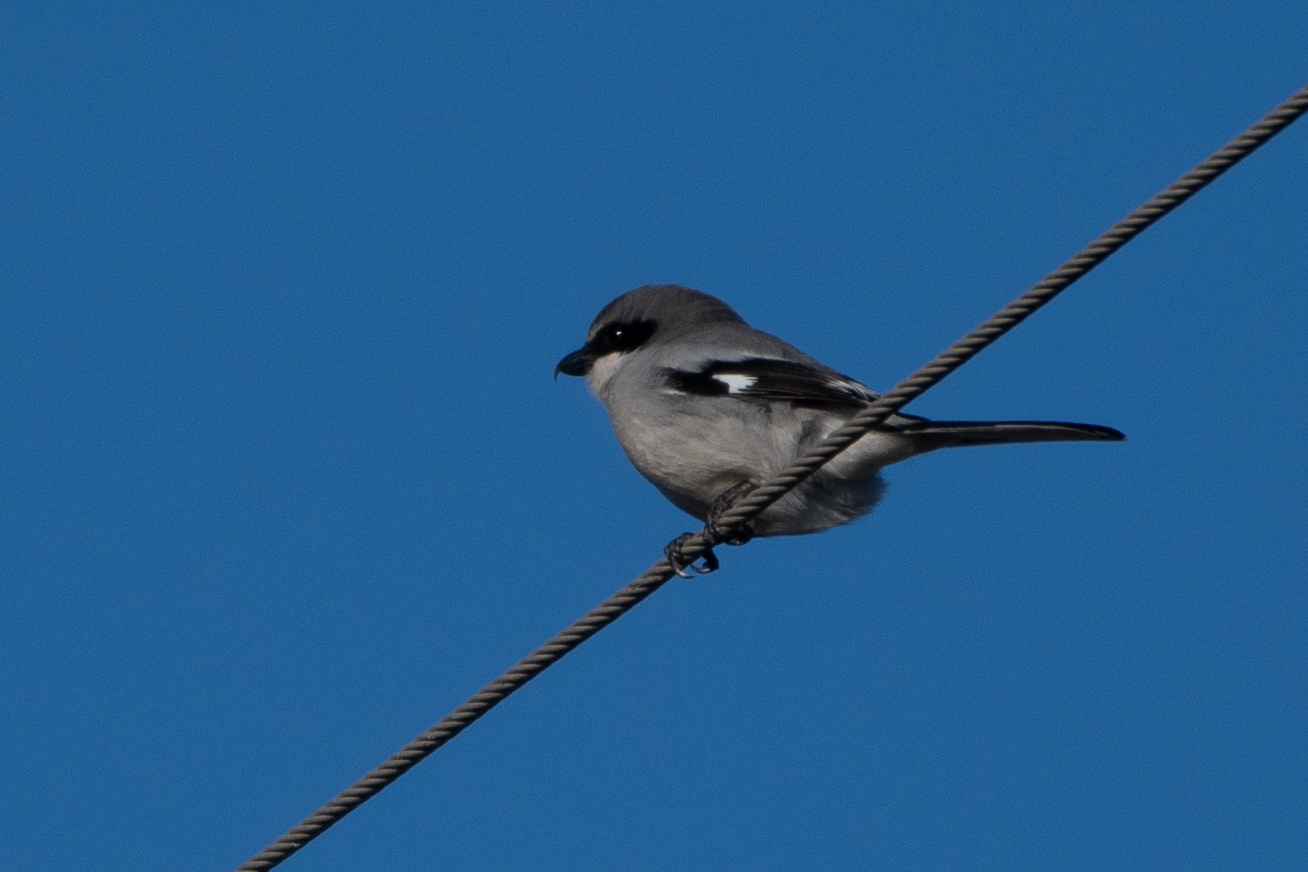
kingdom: Animalia
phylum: Chordata
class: Aves
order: Passeriformes
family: Laniidae
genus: Lanius
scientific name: Lanius ludovicianus
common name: Loggerhead shrike
